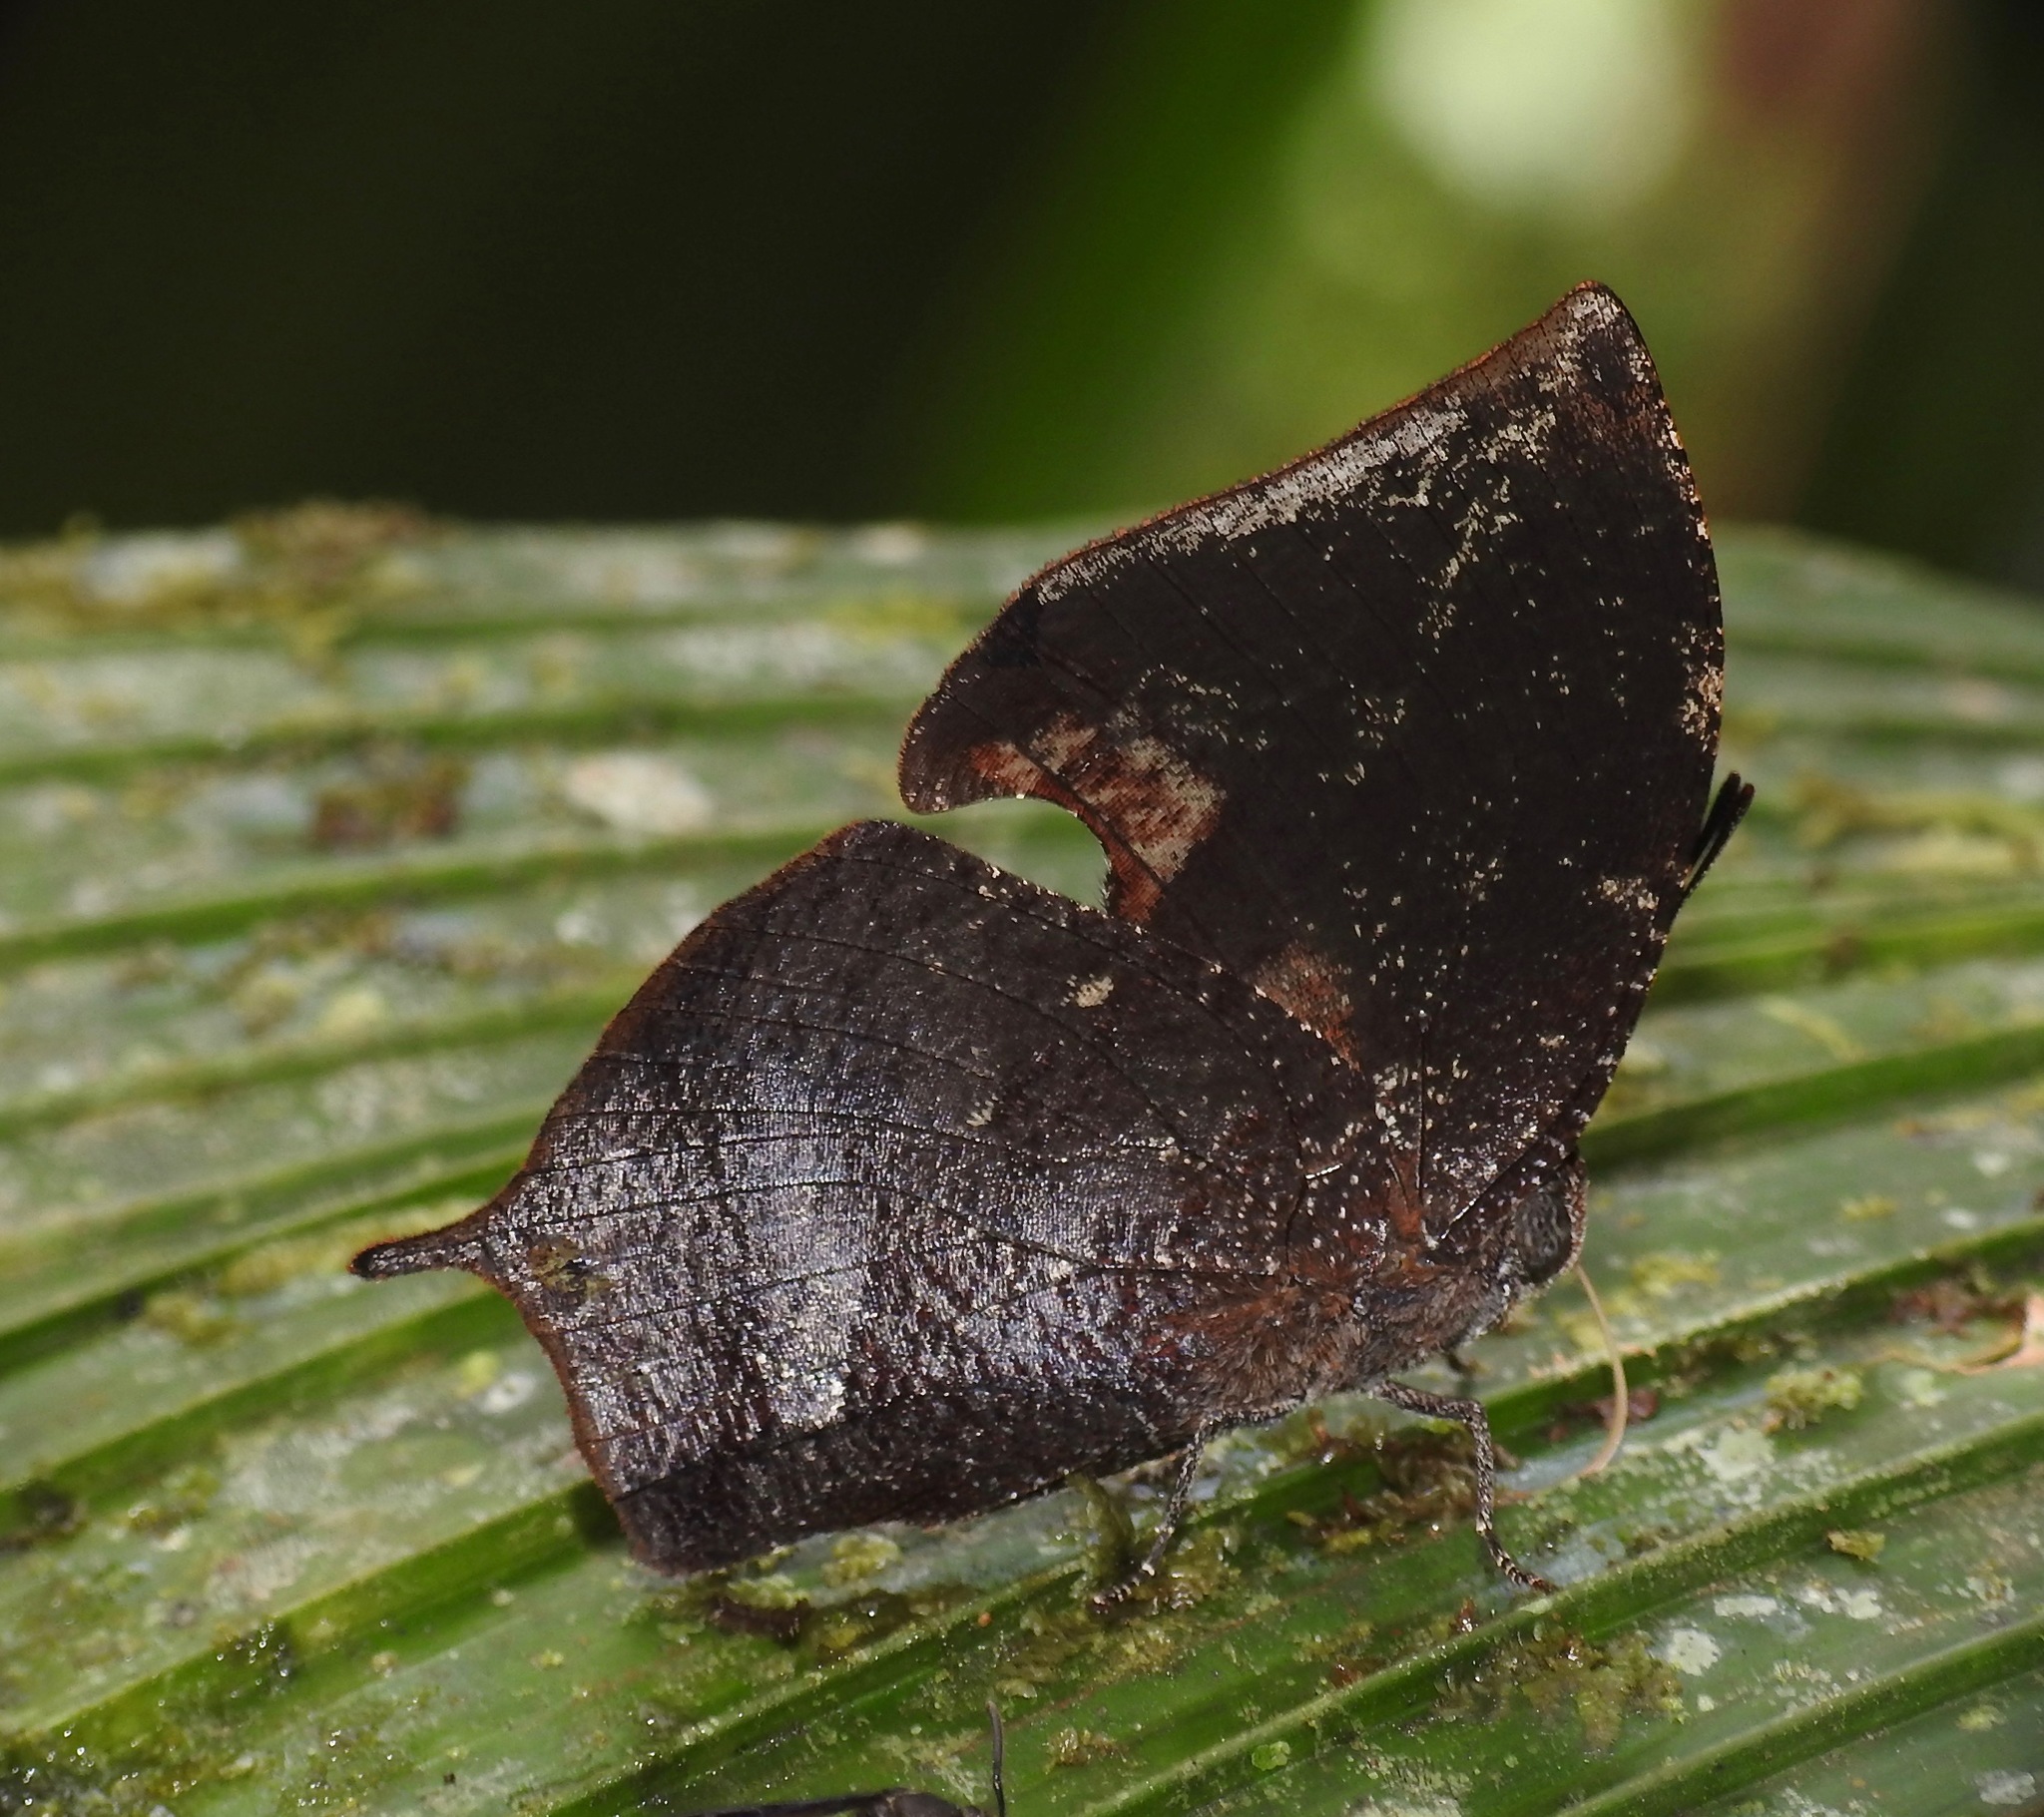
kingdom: Animalia
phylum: Arthropoda
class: Insecta
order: Lepidoptera
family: Nymphalidae
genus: Memphis
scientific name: Memphis
